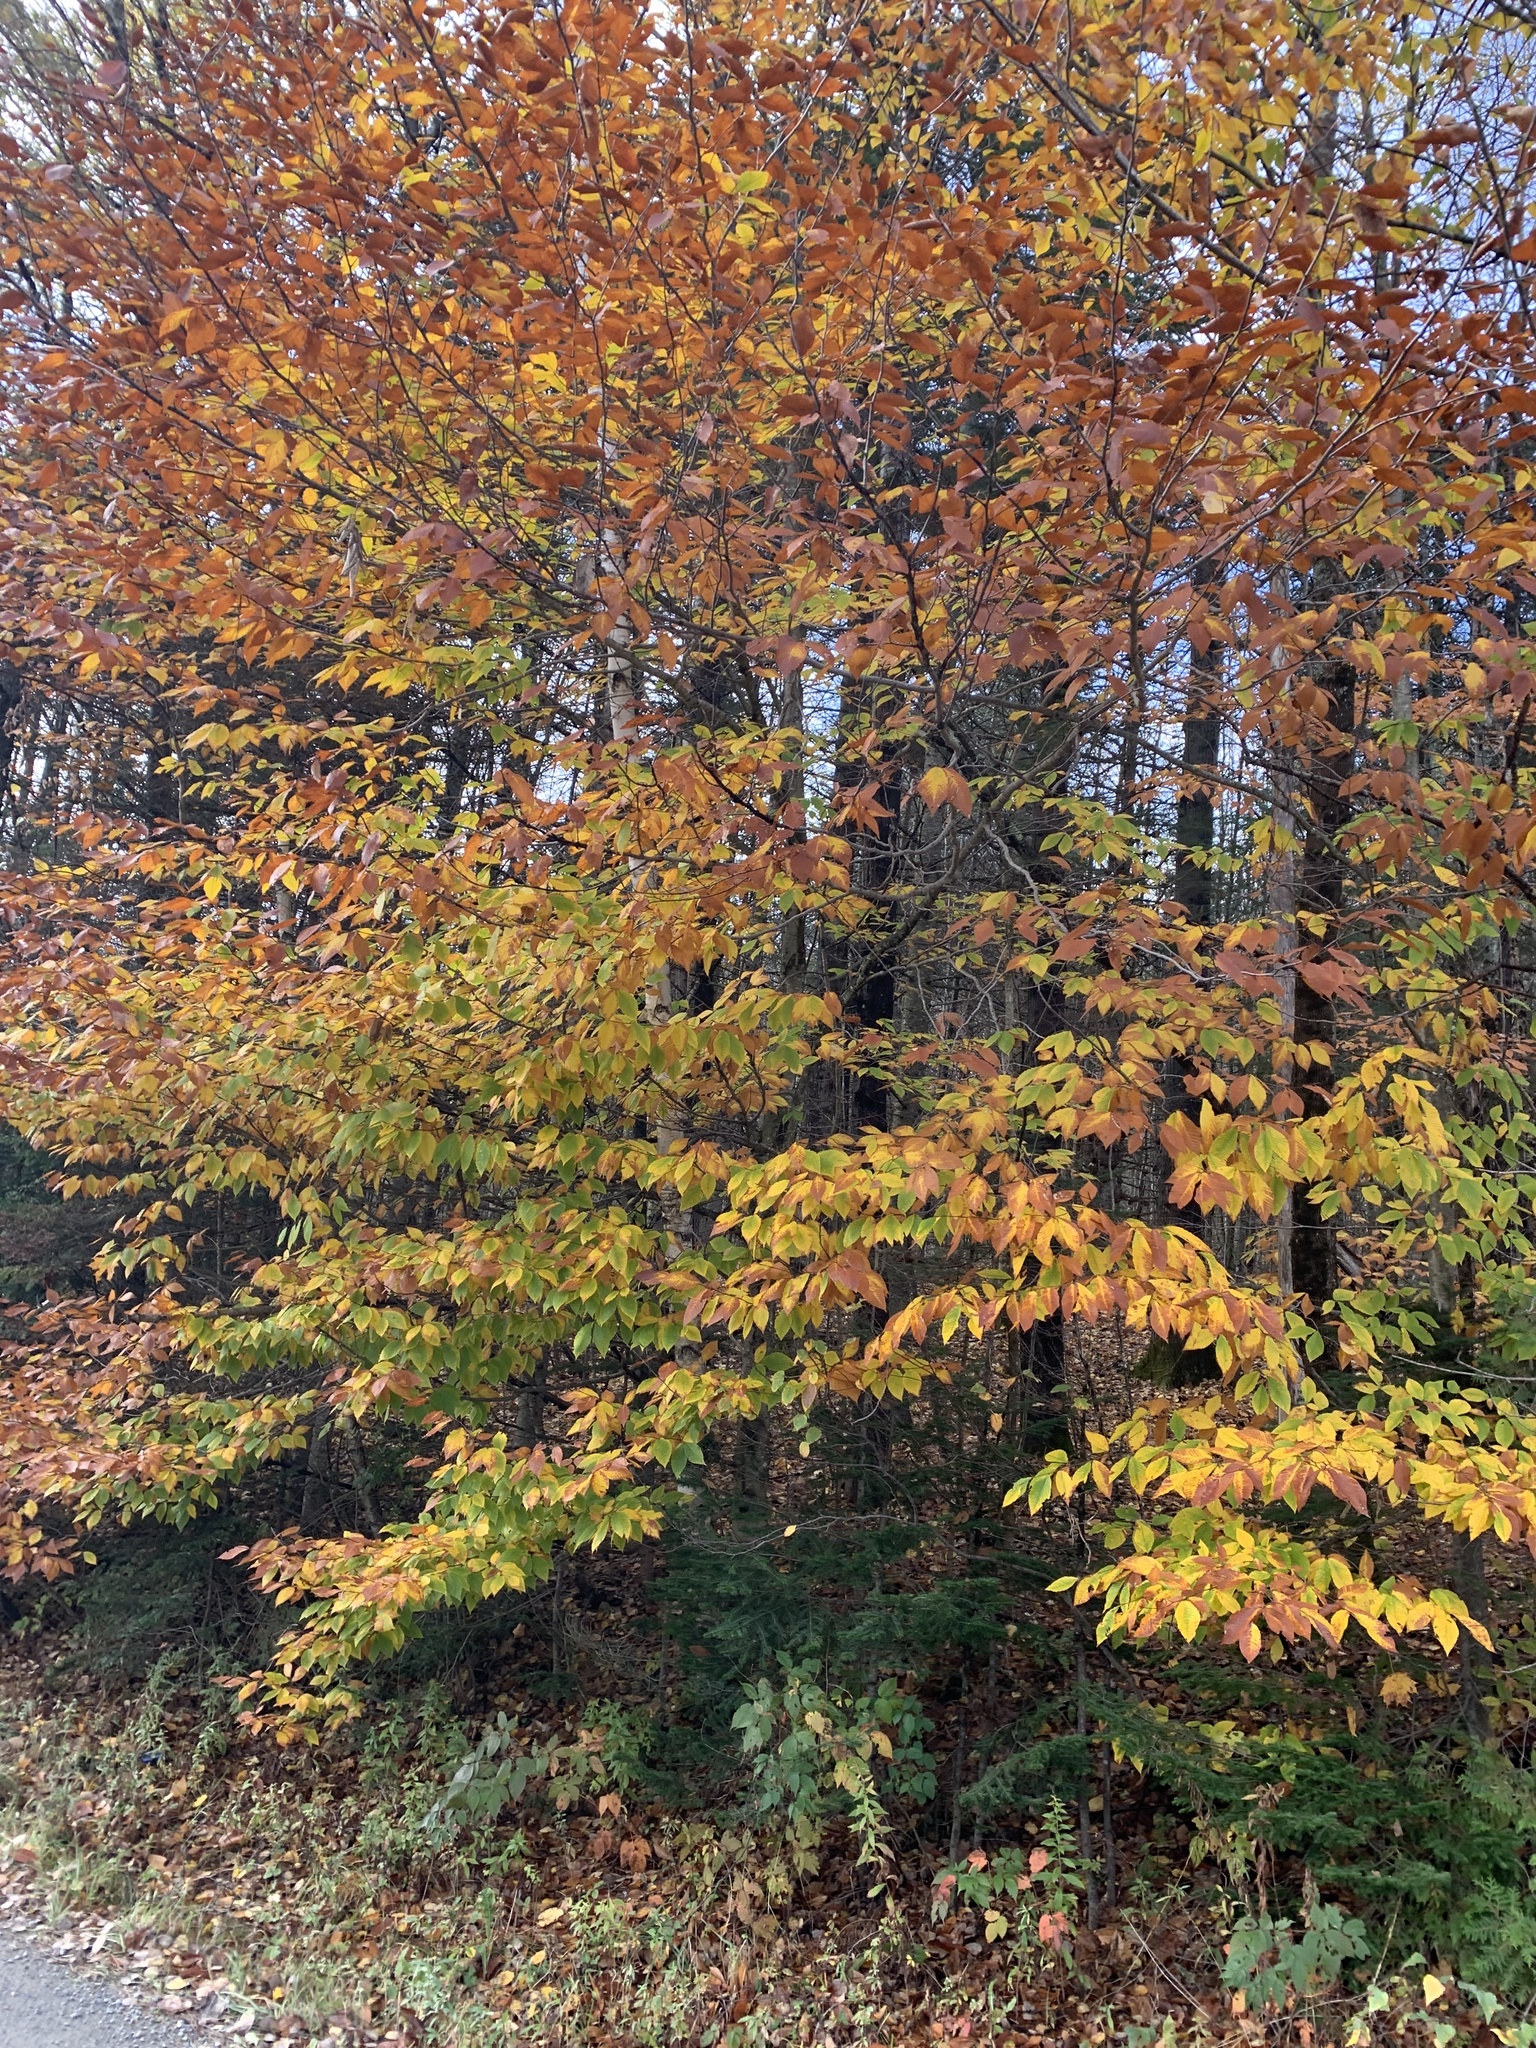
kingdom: Plantae
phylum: Tracheophyta
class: Magnoliopsida
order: Fagales
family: Fagaceae
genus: Fagus
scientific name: Fagus grandifolia
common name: American beech
